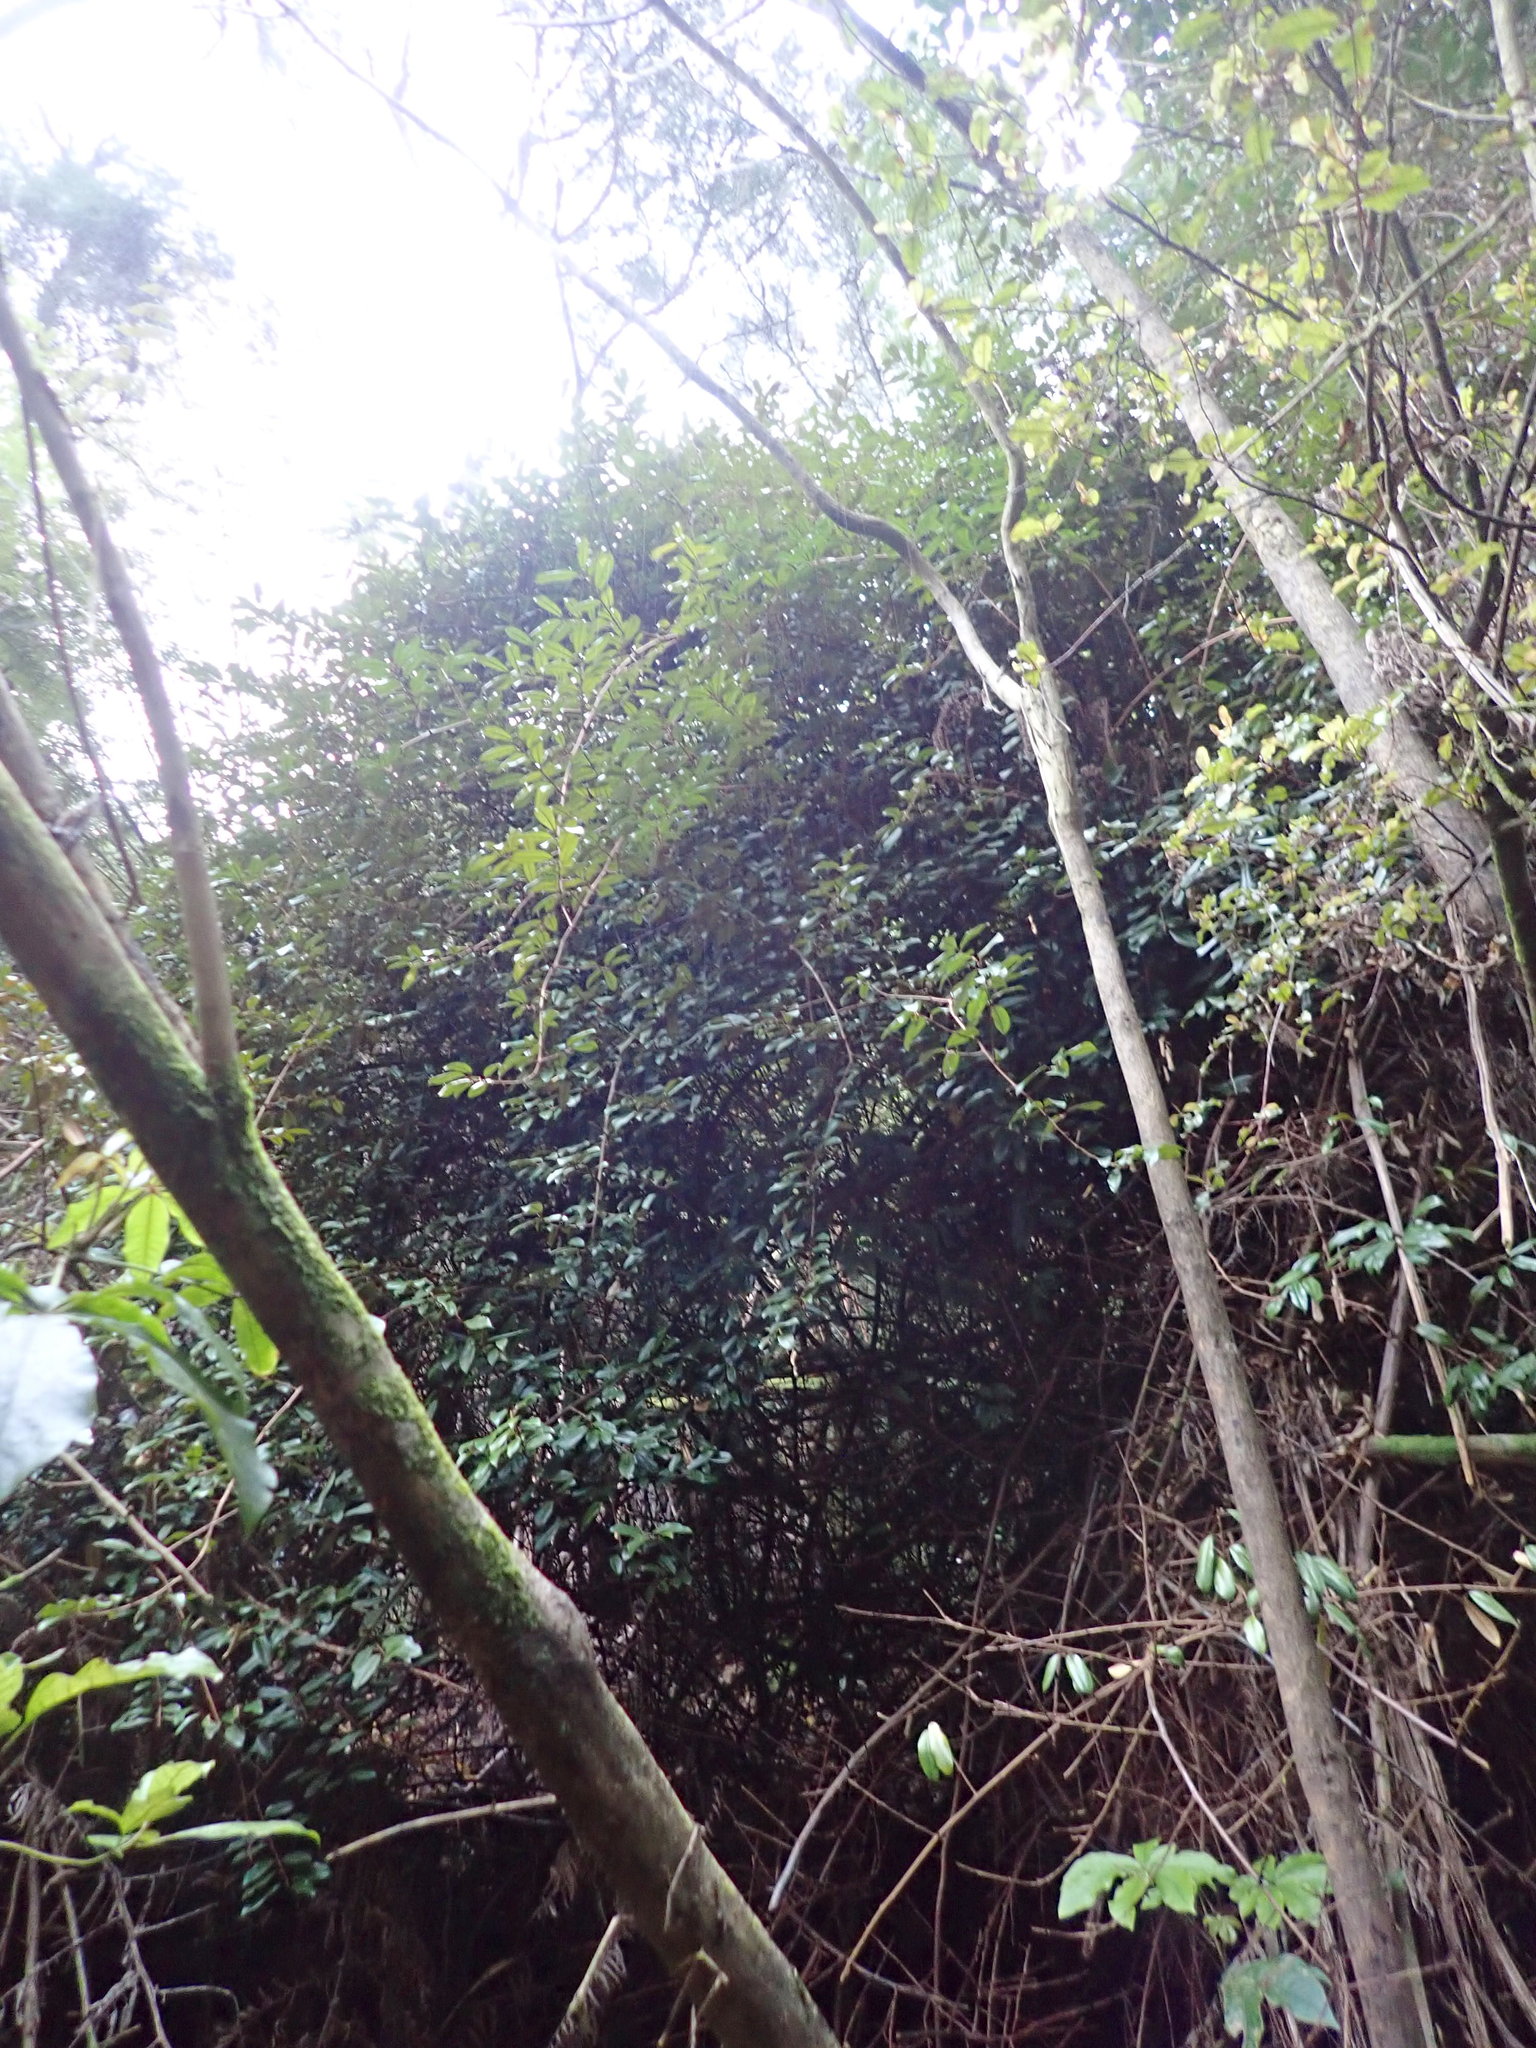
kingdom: Plantae
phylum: Tracheophyta
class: Magnoliopsida
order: Rosales
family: Elaeagnaceae
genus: Elaeagnus
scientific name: Elaeagnus reflexa
